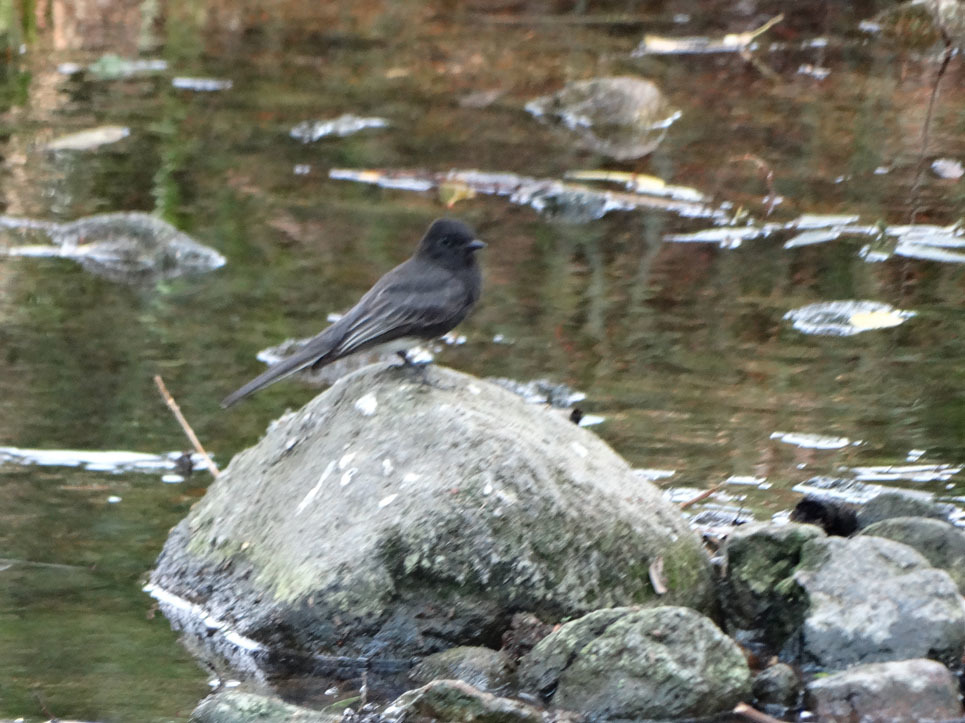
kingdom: Animalia
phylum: Chordata
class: Aves
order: Passeriformes
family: Tyrannidae
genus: Sayornis
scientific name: Sayornis nigricans
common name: Black phoebe
